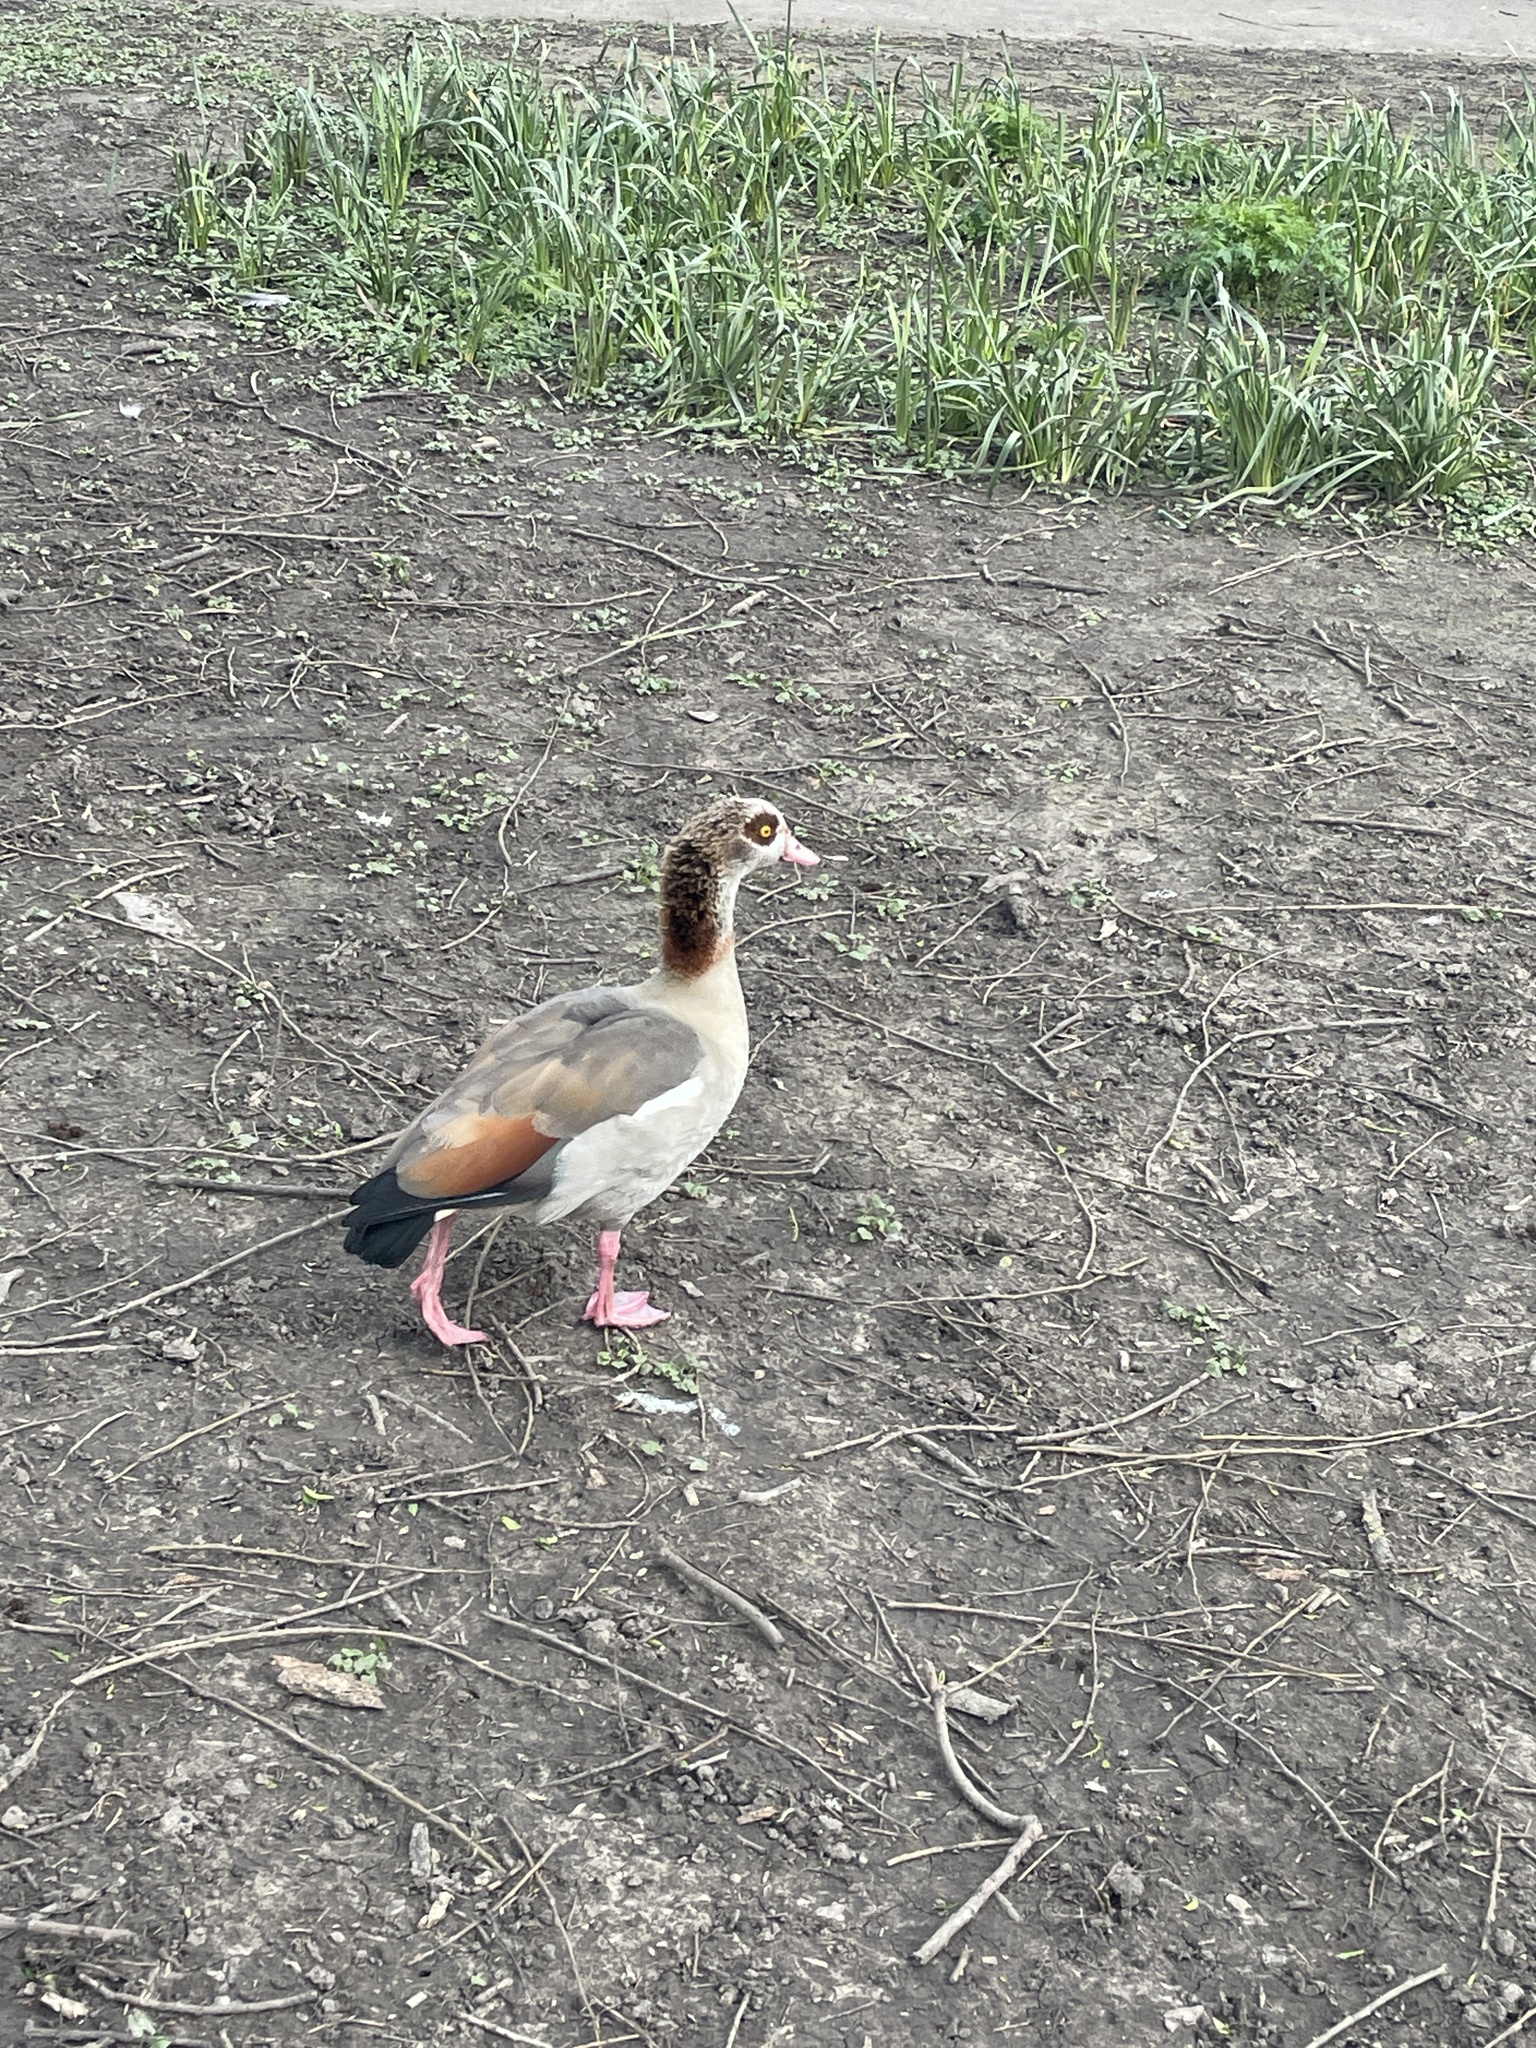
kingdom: Animalia
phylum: Chordata
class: Aves
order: Anseriformes
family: Anatidae
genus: Alopochen
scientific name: Alopochen aegyptiaca
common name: Egyptian goose
